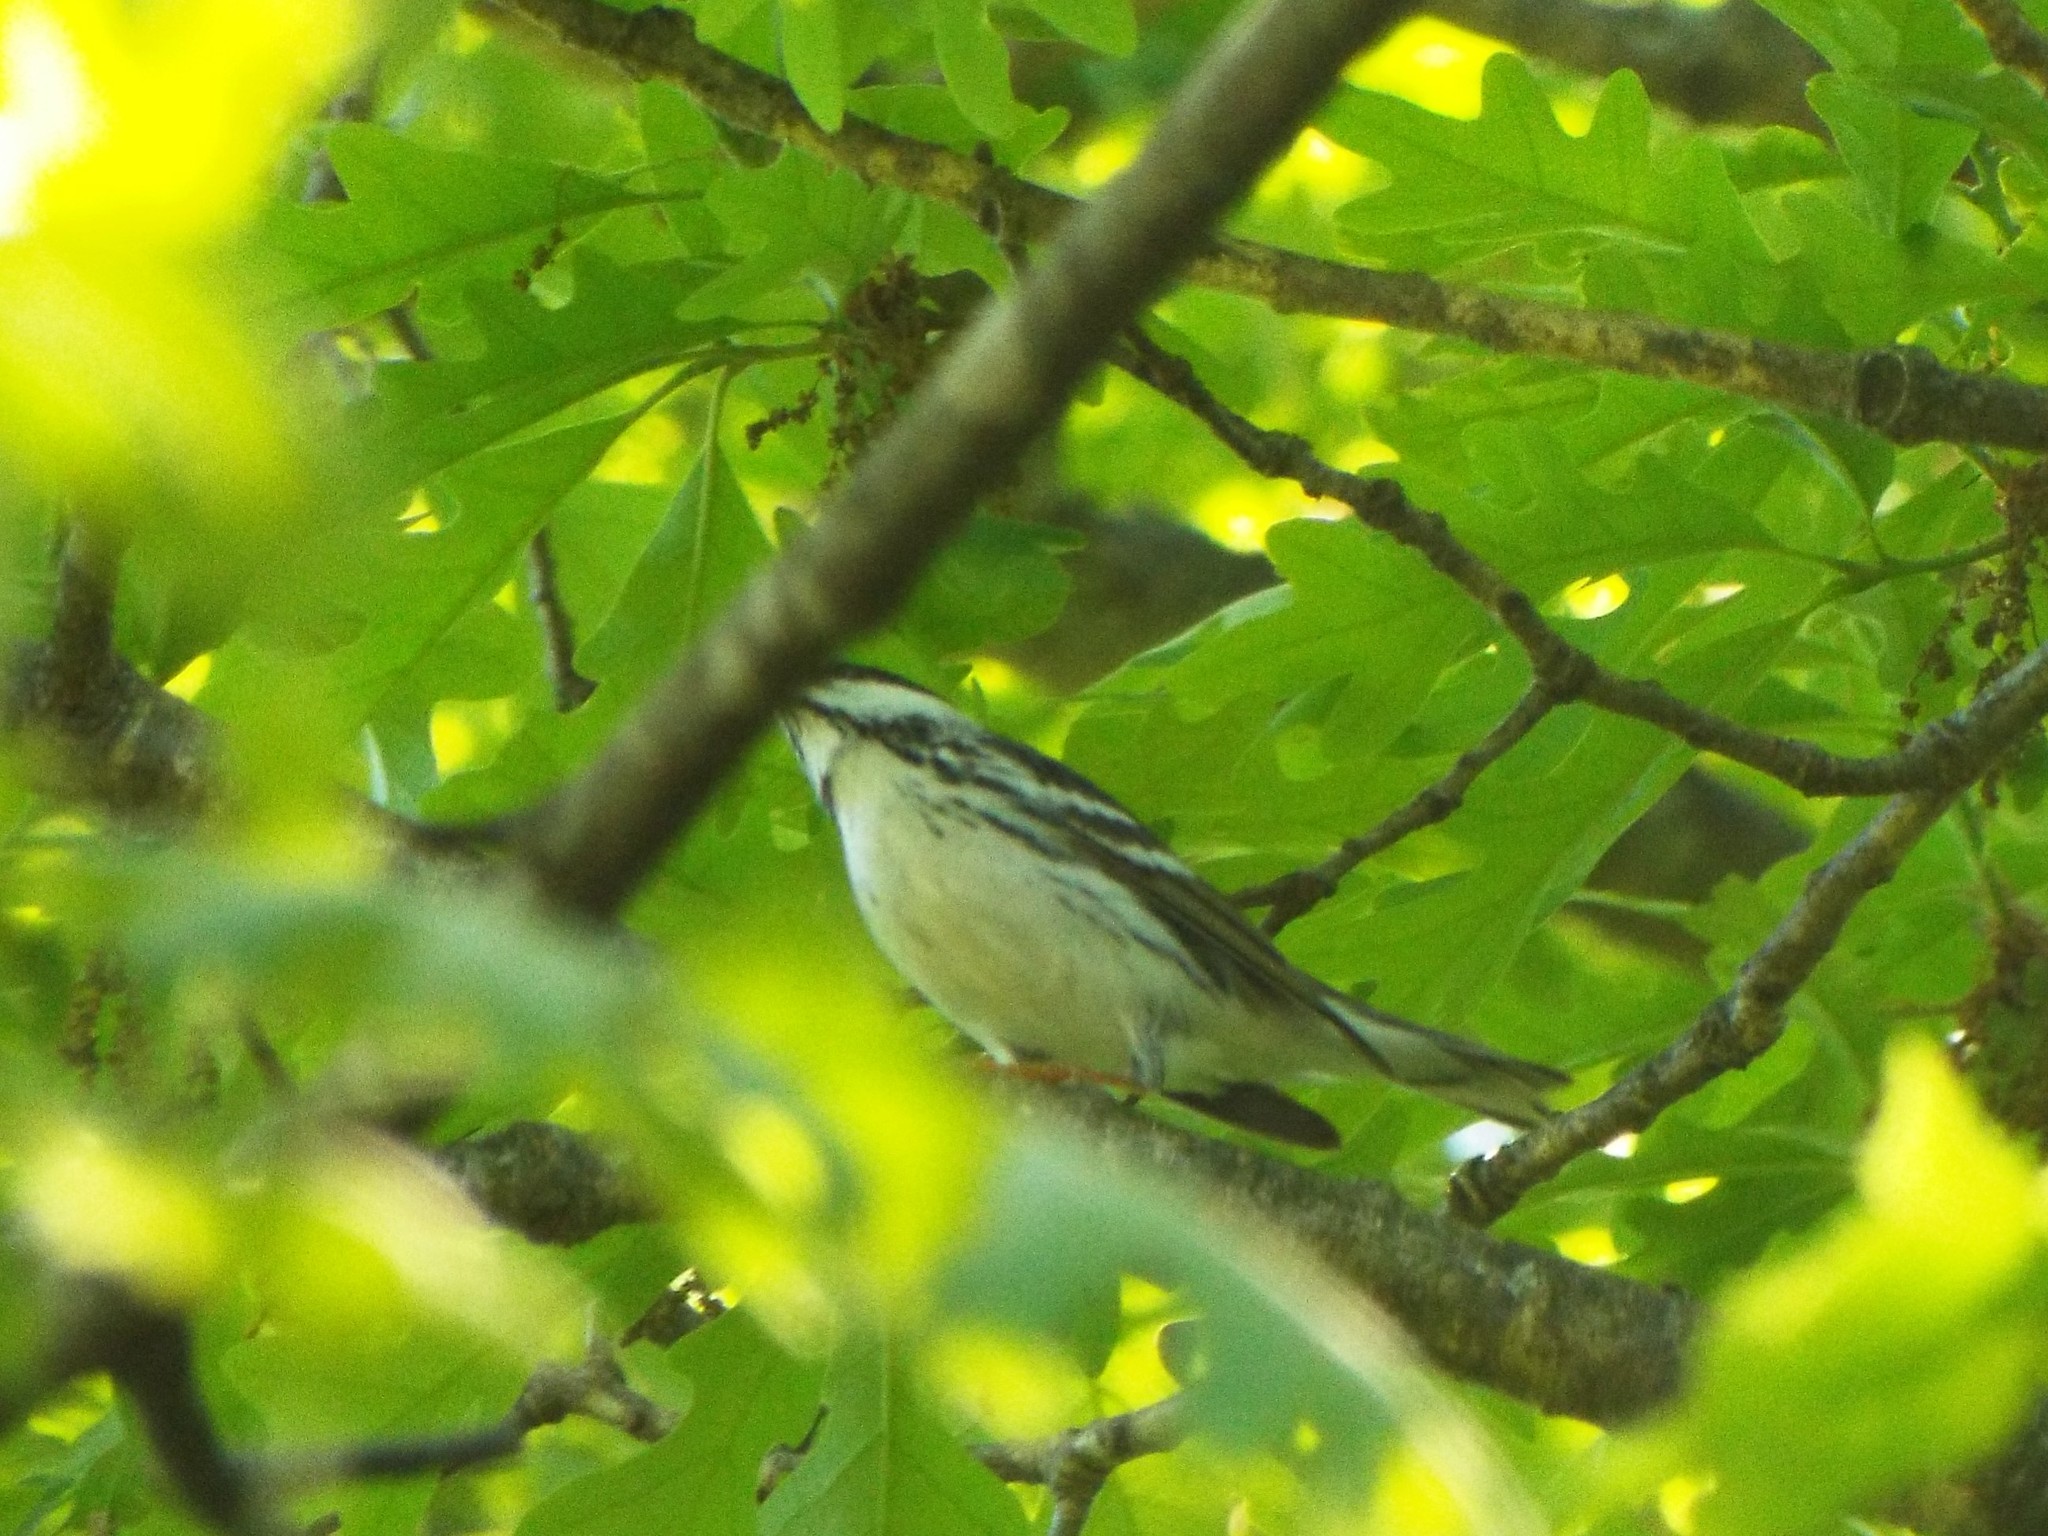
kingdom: Animalia
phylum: Chordata
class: Aves
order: Passeriformes
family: Parulidae
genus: Setophaga
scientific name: Setophaga striata
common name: Blackpoll warbler
